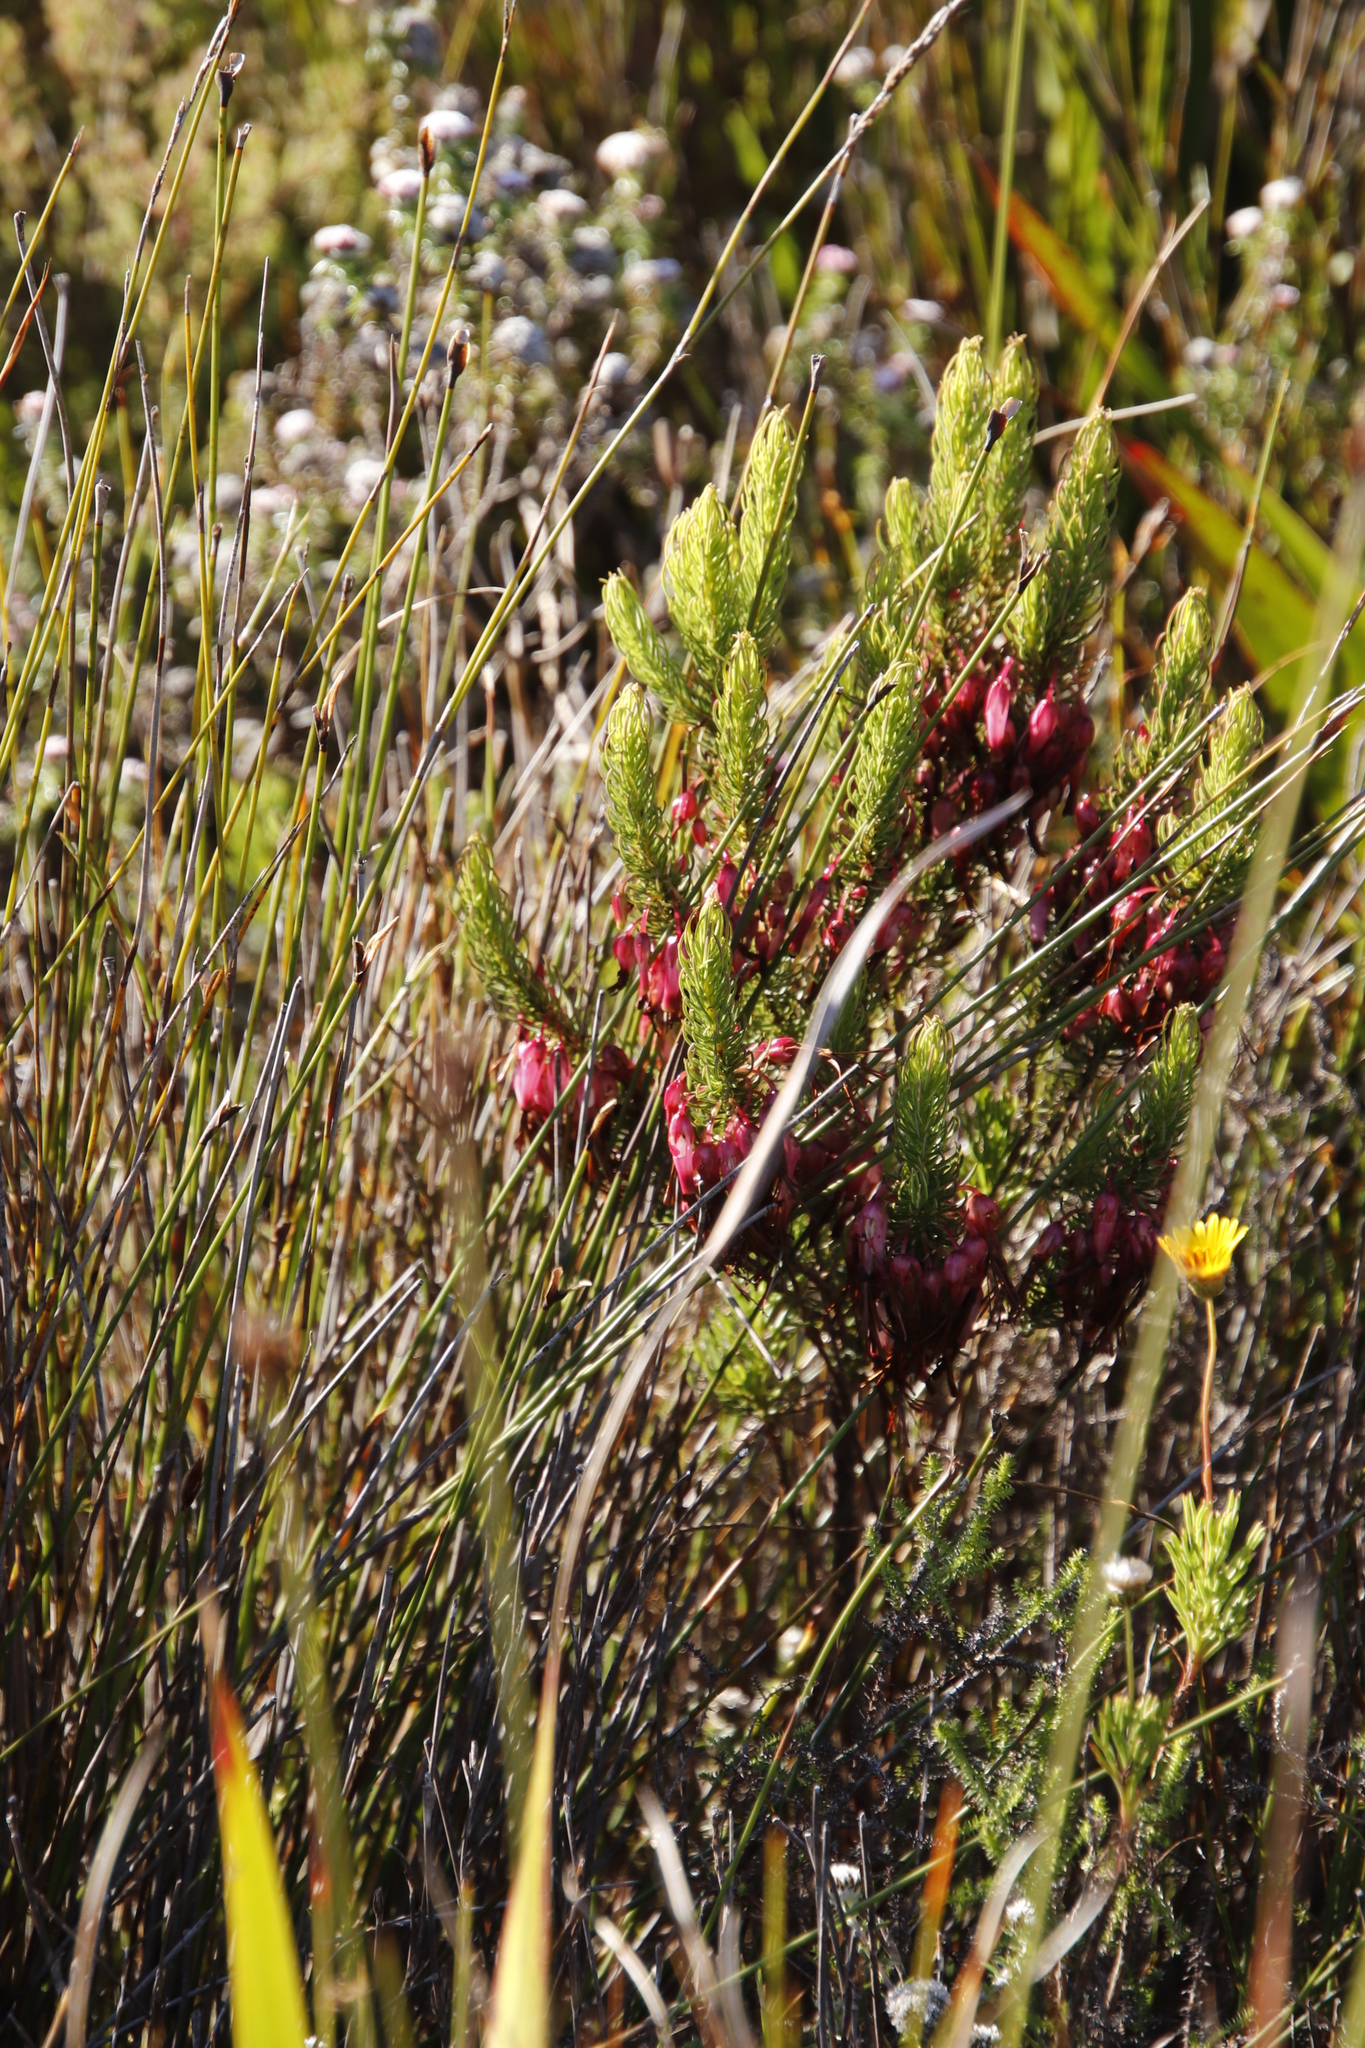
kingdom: Plantae
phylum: Tracheophyta
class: Magnoliopsida
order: Ericales
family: Ericaceae
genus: Erica
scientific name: Erica plukenetii
